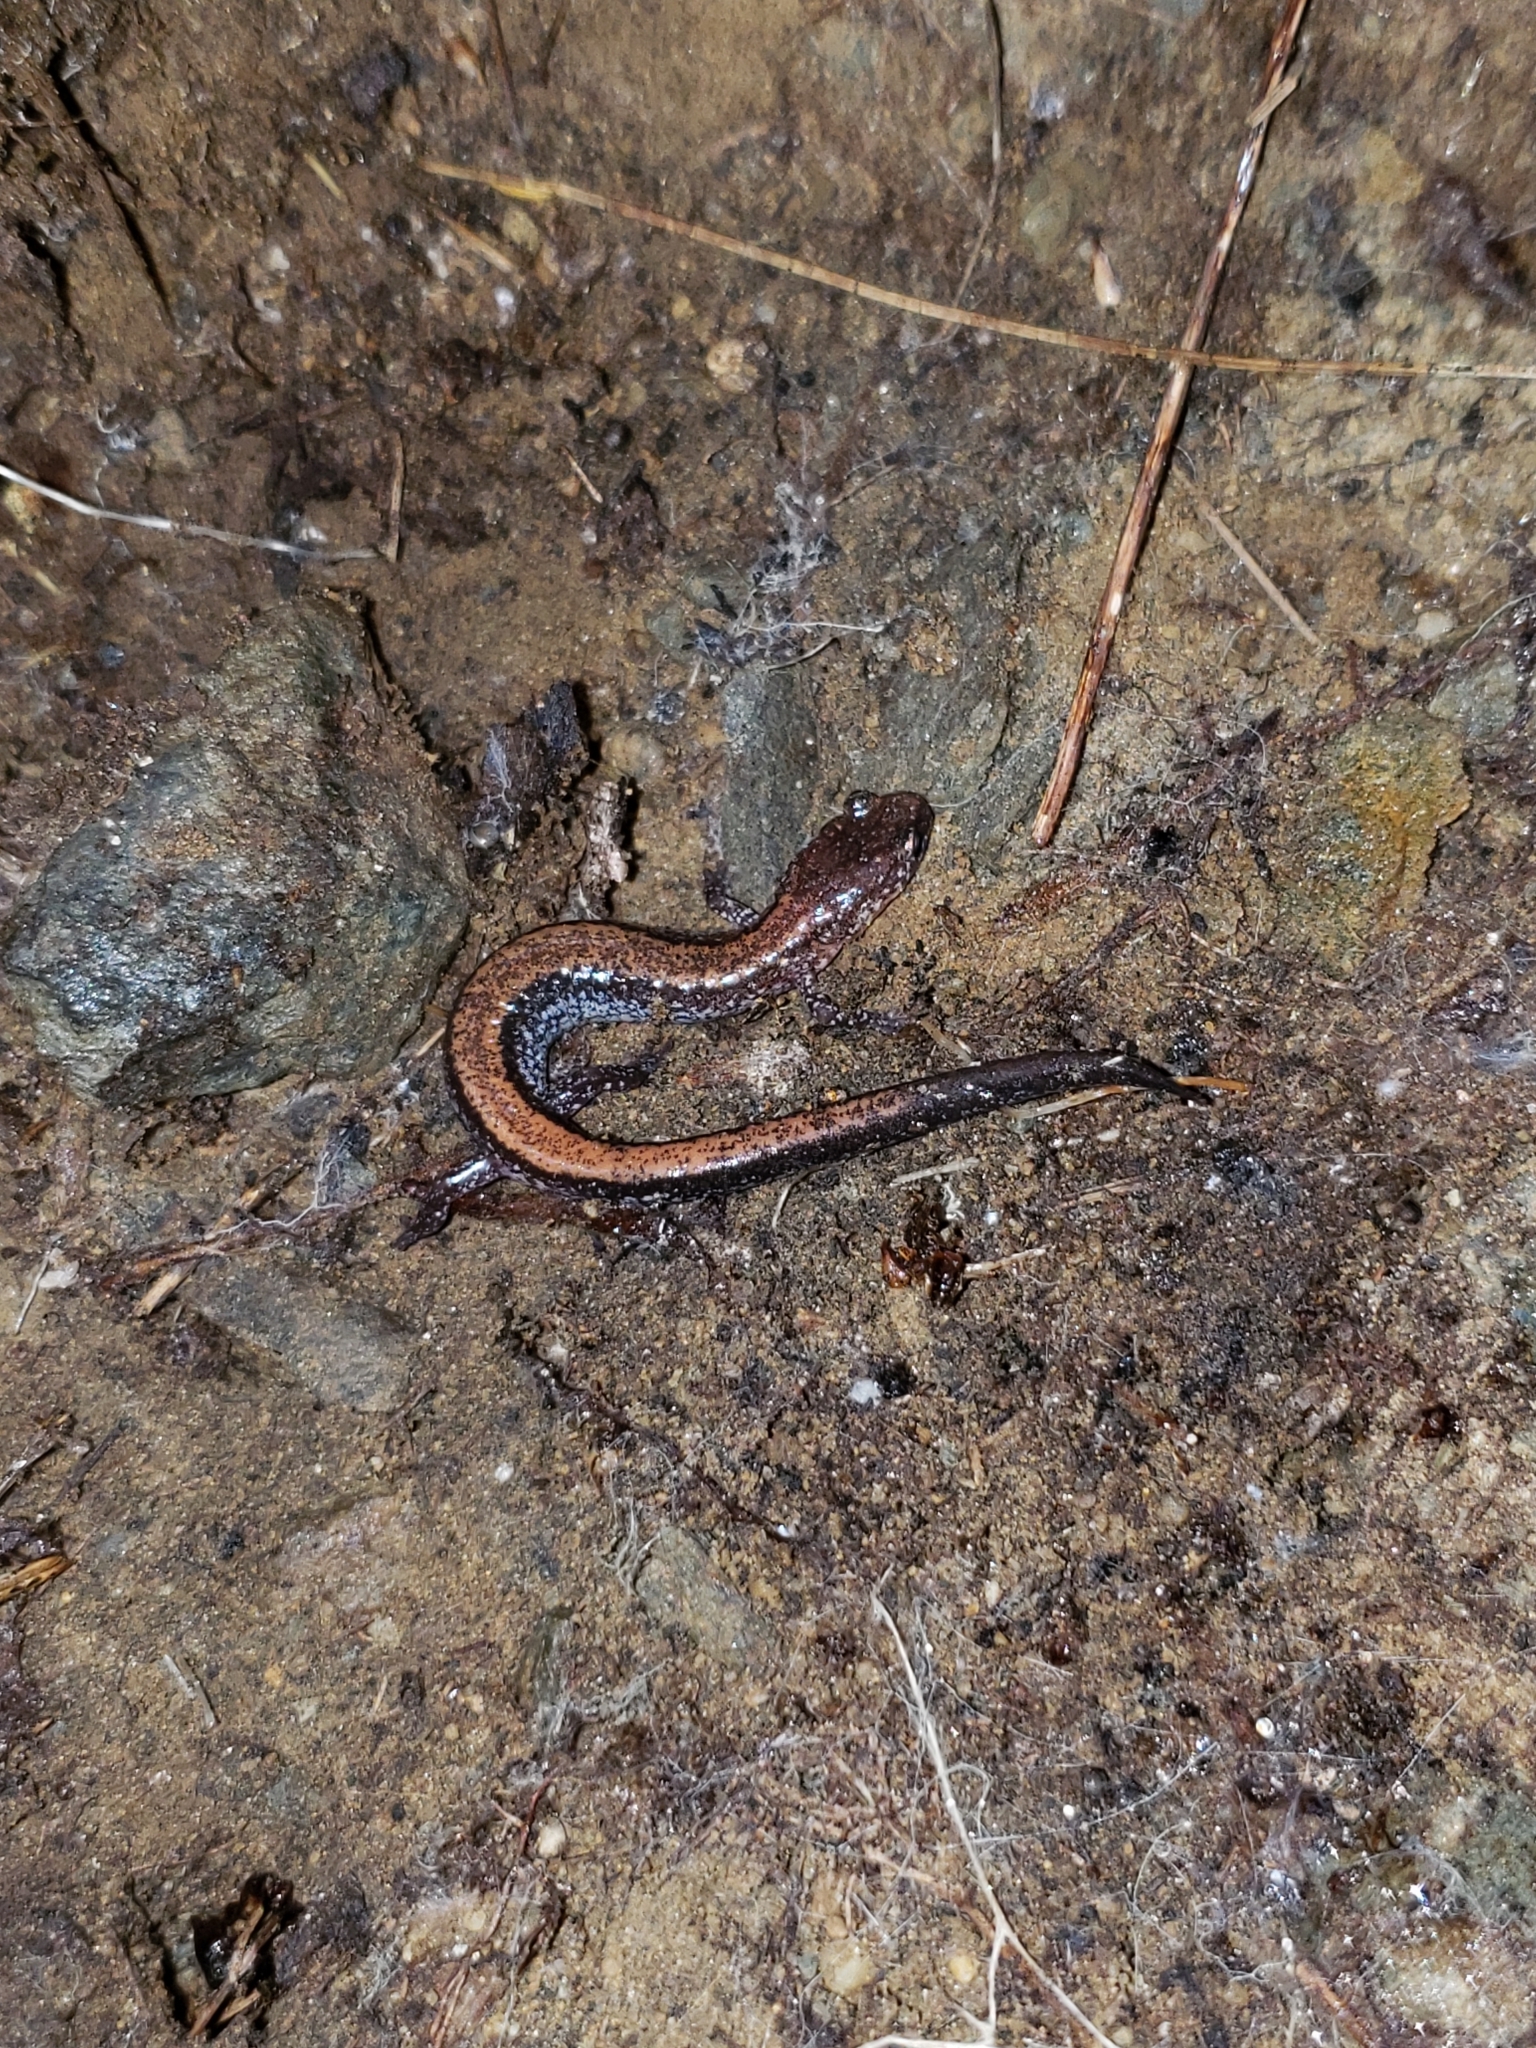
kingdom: Animalia
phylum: Chordata
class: Amphibia
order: Caudata
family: Plethodontidae
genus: Plethodon
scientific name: Plethodon cinereus
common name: Redback salamander
